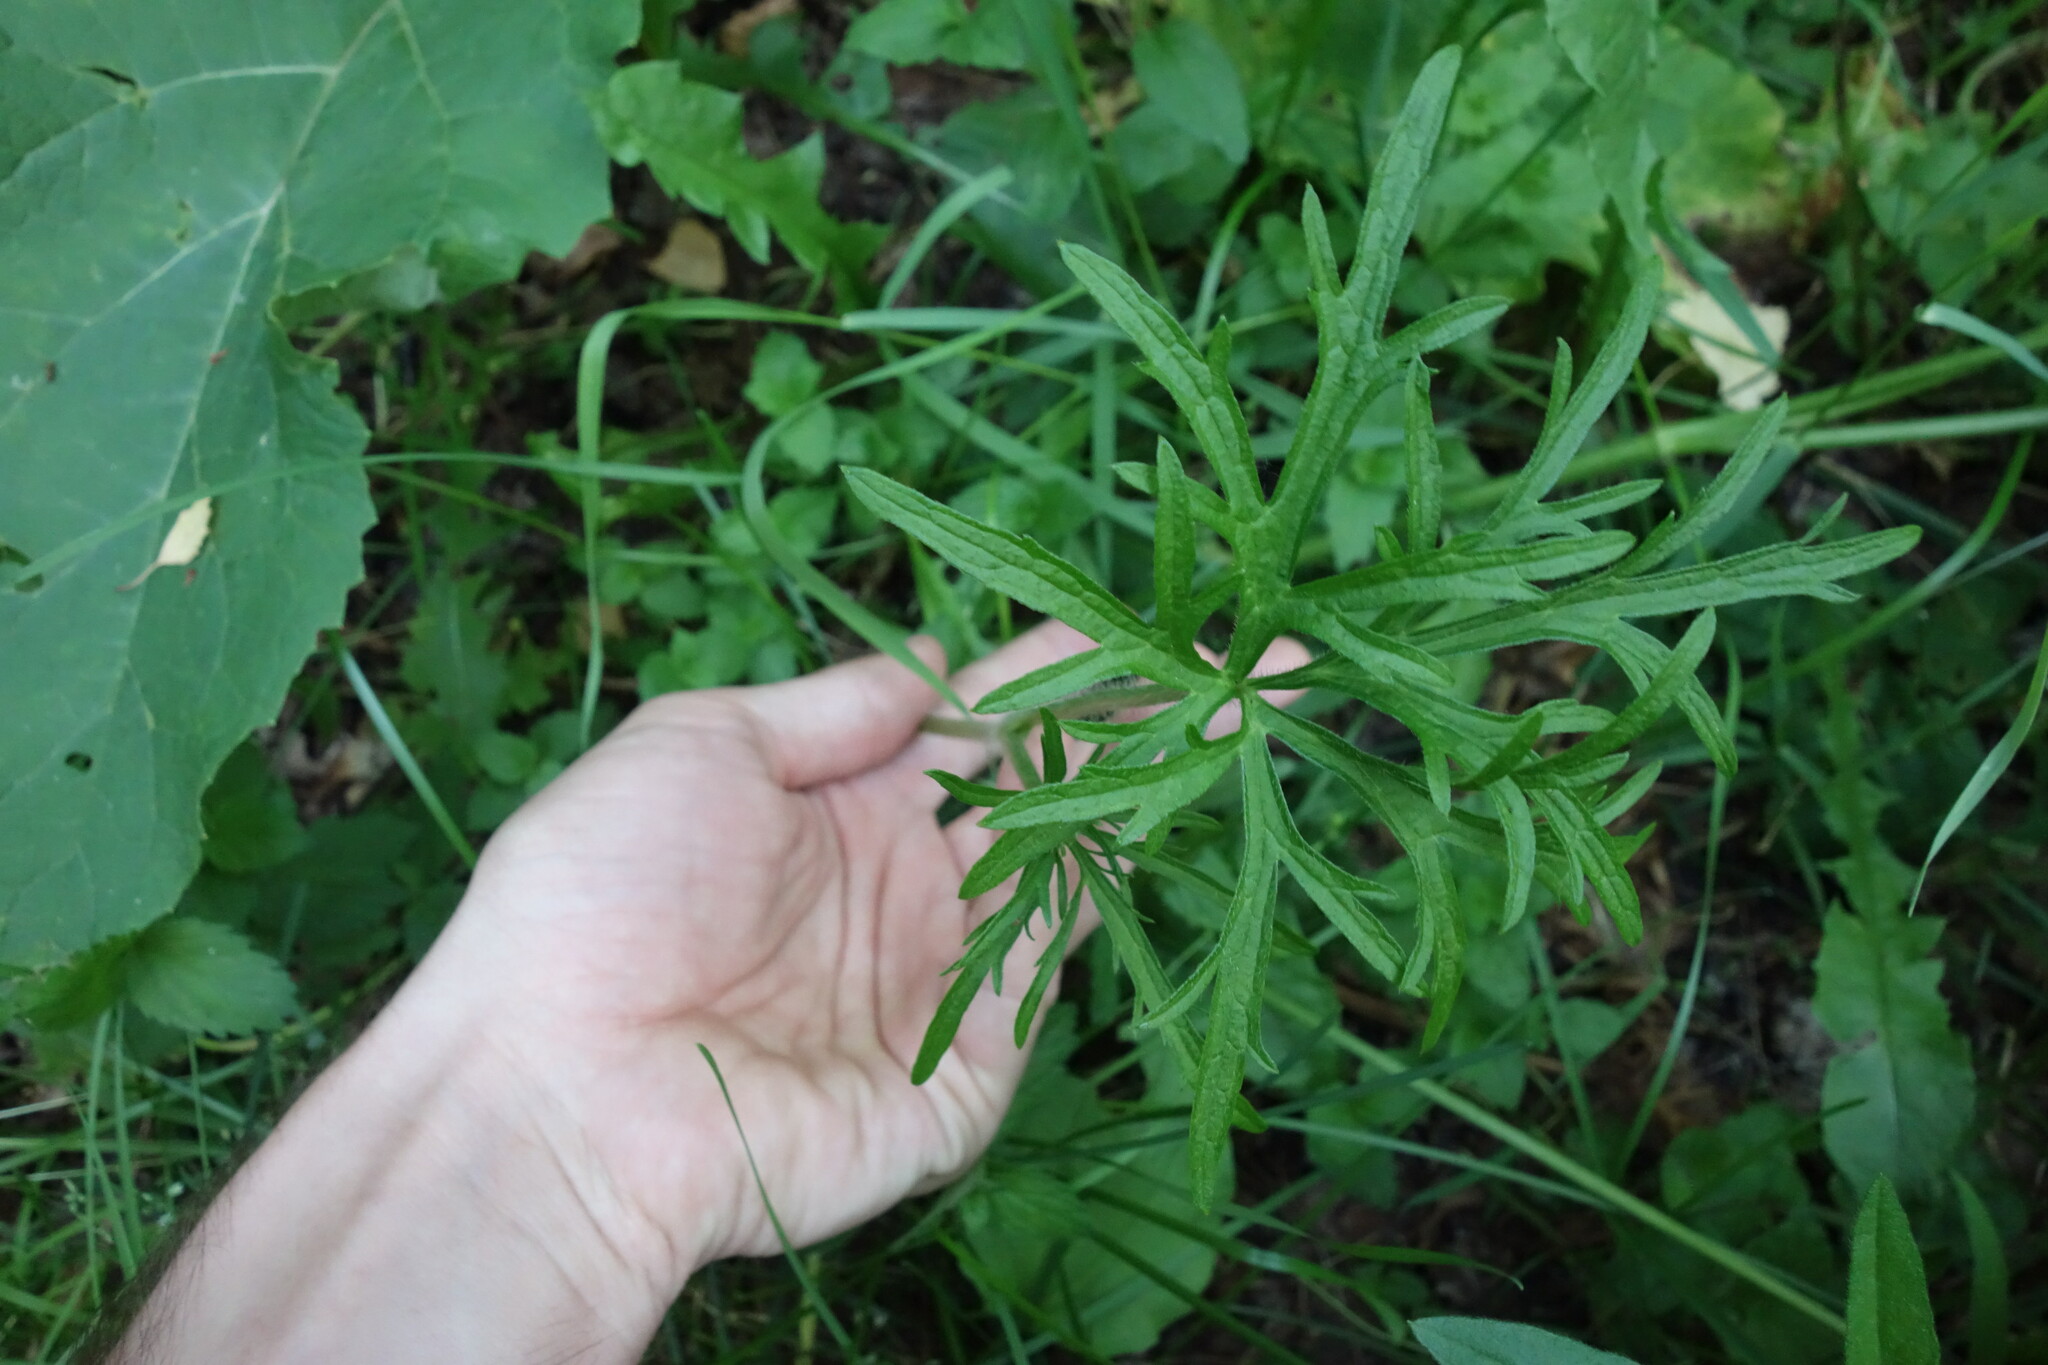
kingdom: Plantae
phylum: Tracheophyta
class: Magnoliopsida
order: Ranunculales
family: Ranunculaceae
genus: Ranunculus
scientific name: Ranunculus polyanthemos
